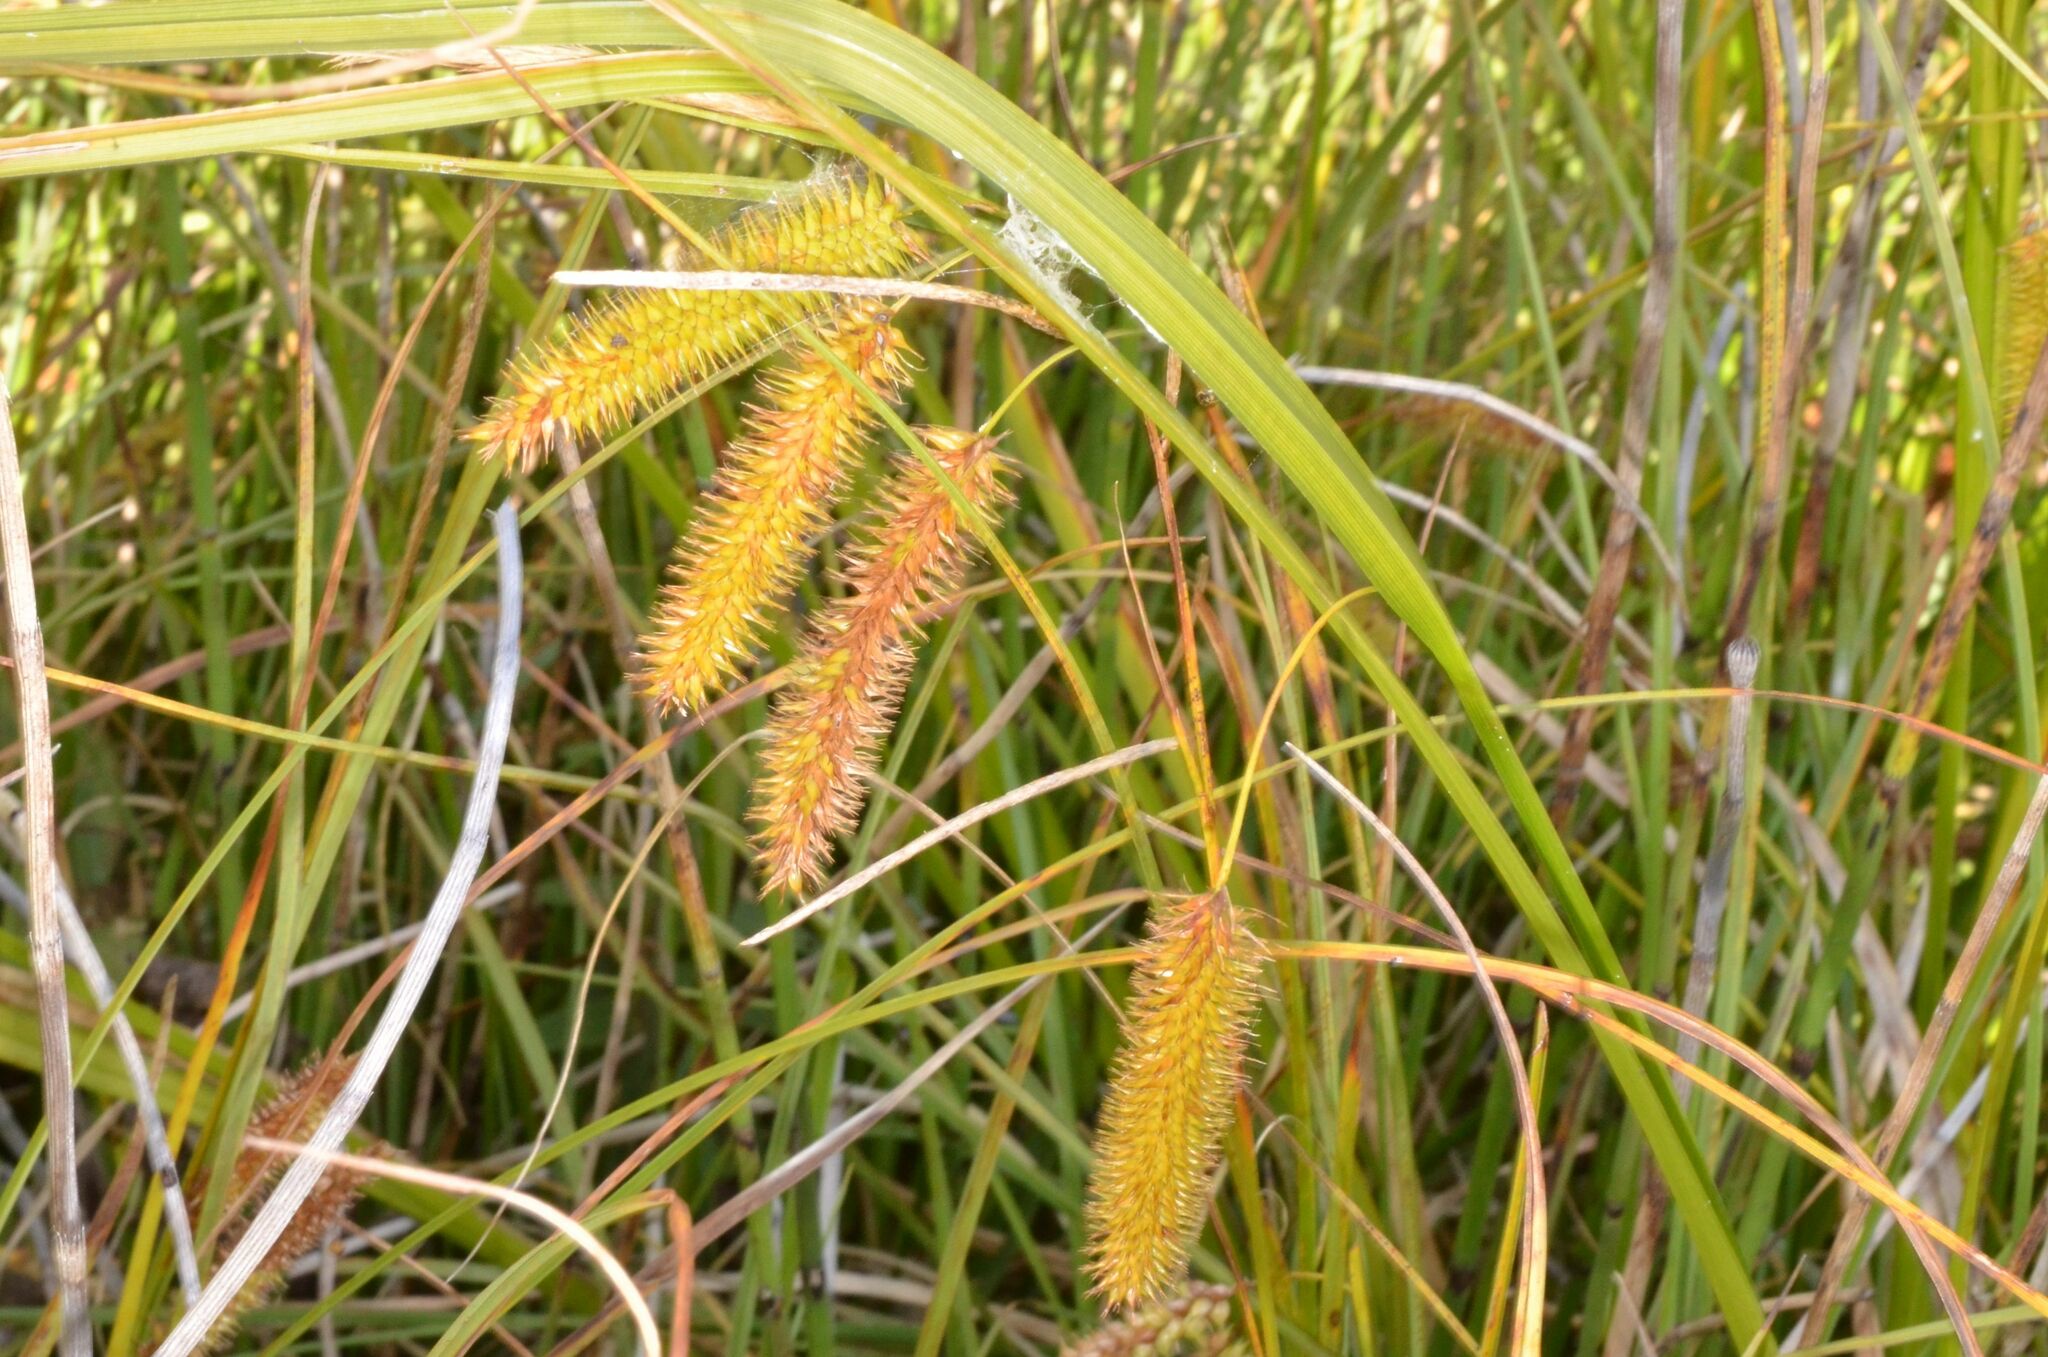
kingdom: Plantae
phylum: Tracheophyta
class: Liliopsida
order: Poales
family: Cyperaceae
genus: Carex
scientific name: Carex pseudocyperus
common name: Cyperus sedge
